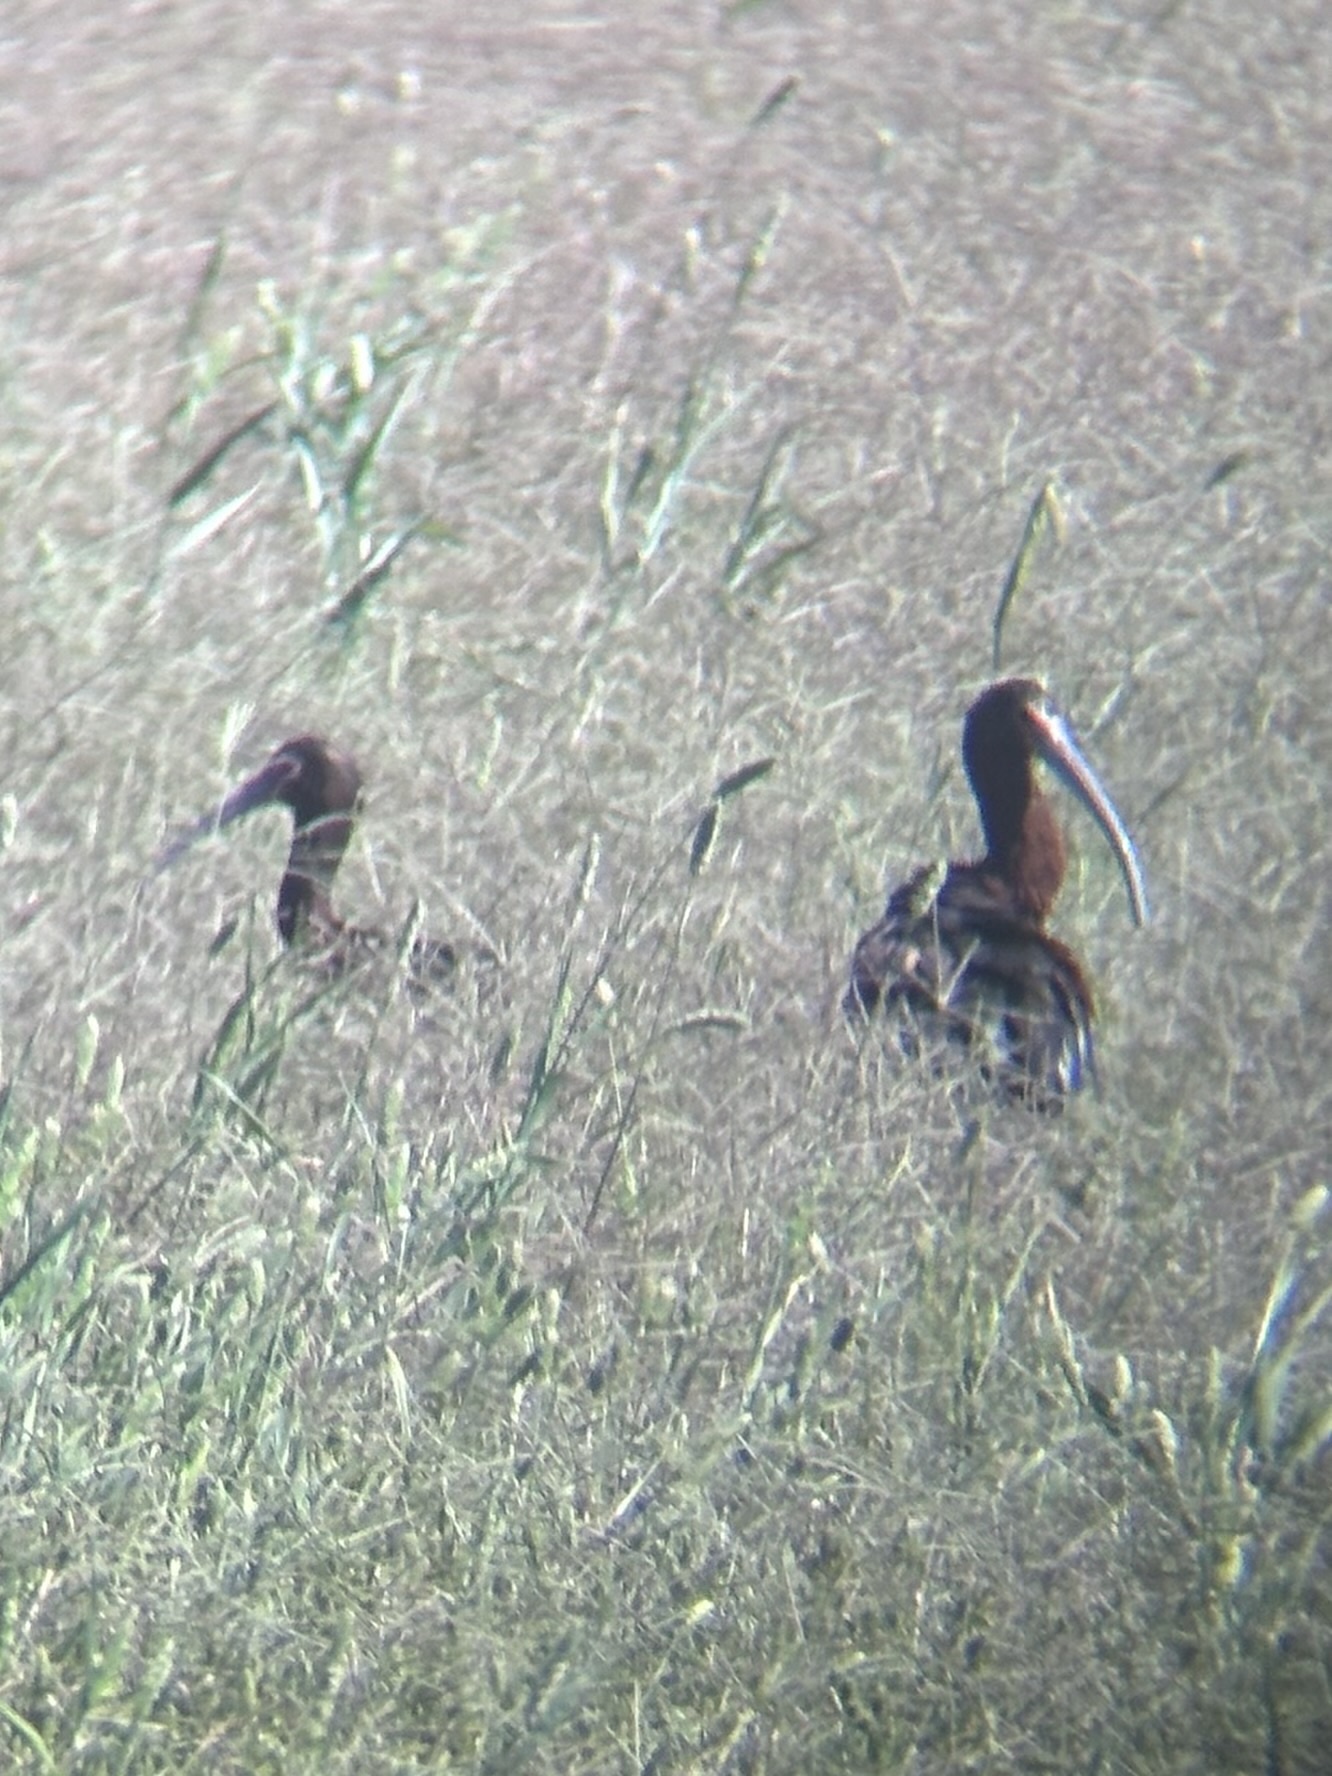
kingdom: Animalia
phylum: Chordata
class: Aves
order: Pelecaniformes
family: Threskiornithidae
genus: Plegadis
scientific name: Plegadis chihi
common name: White-faced ibis
